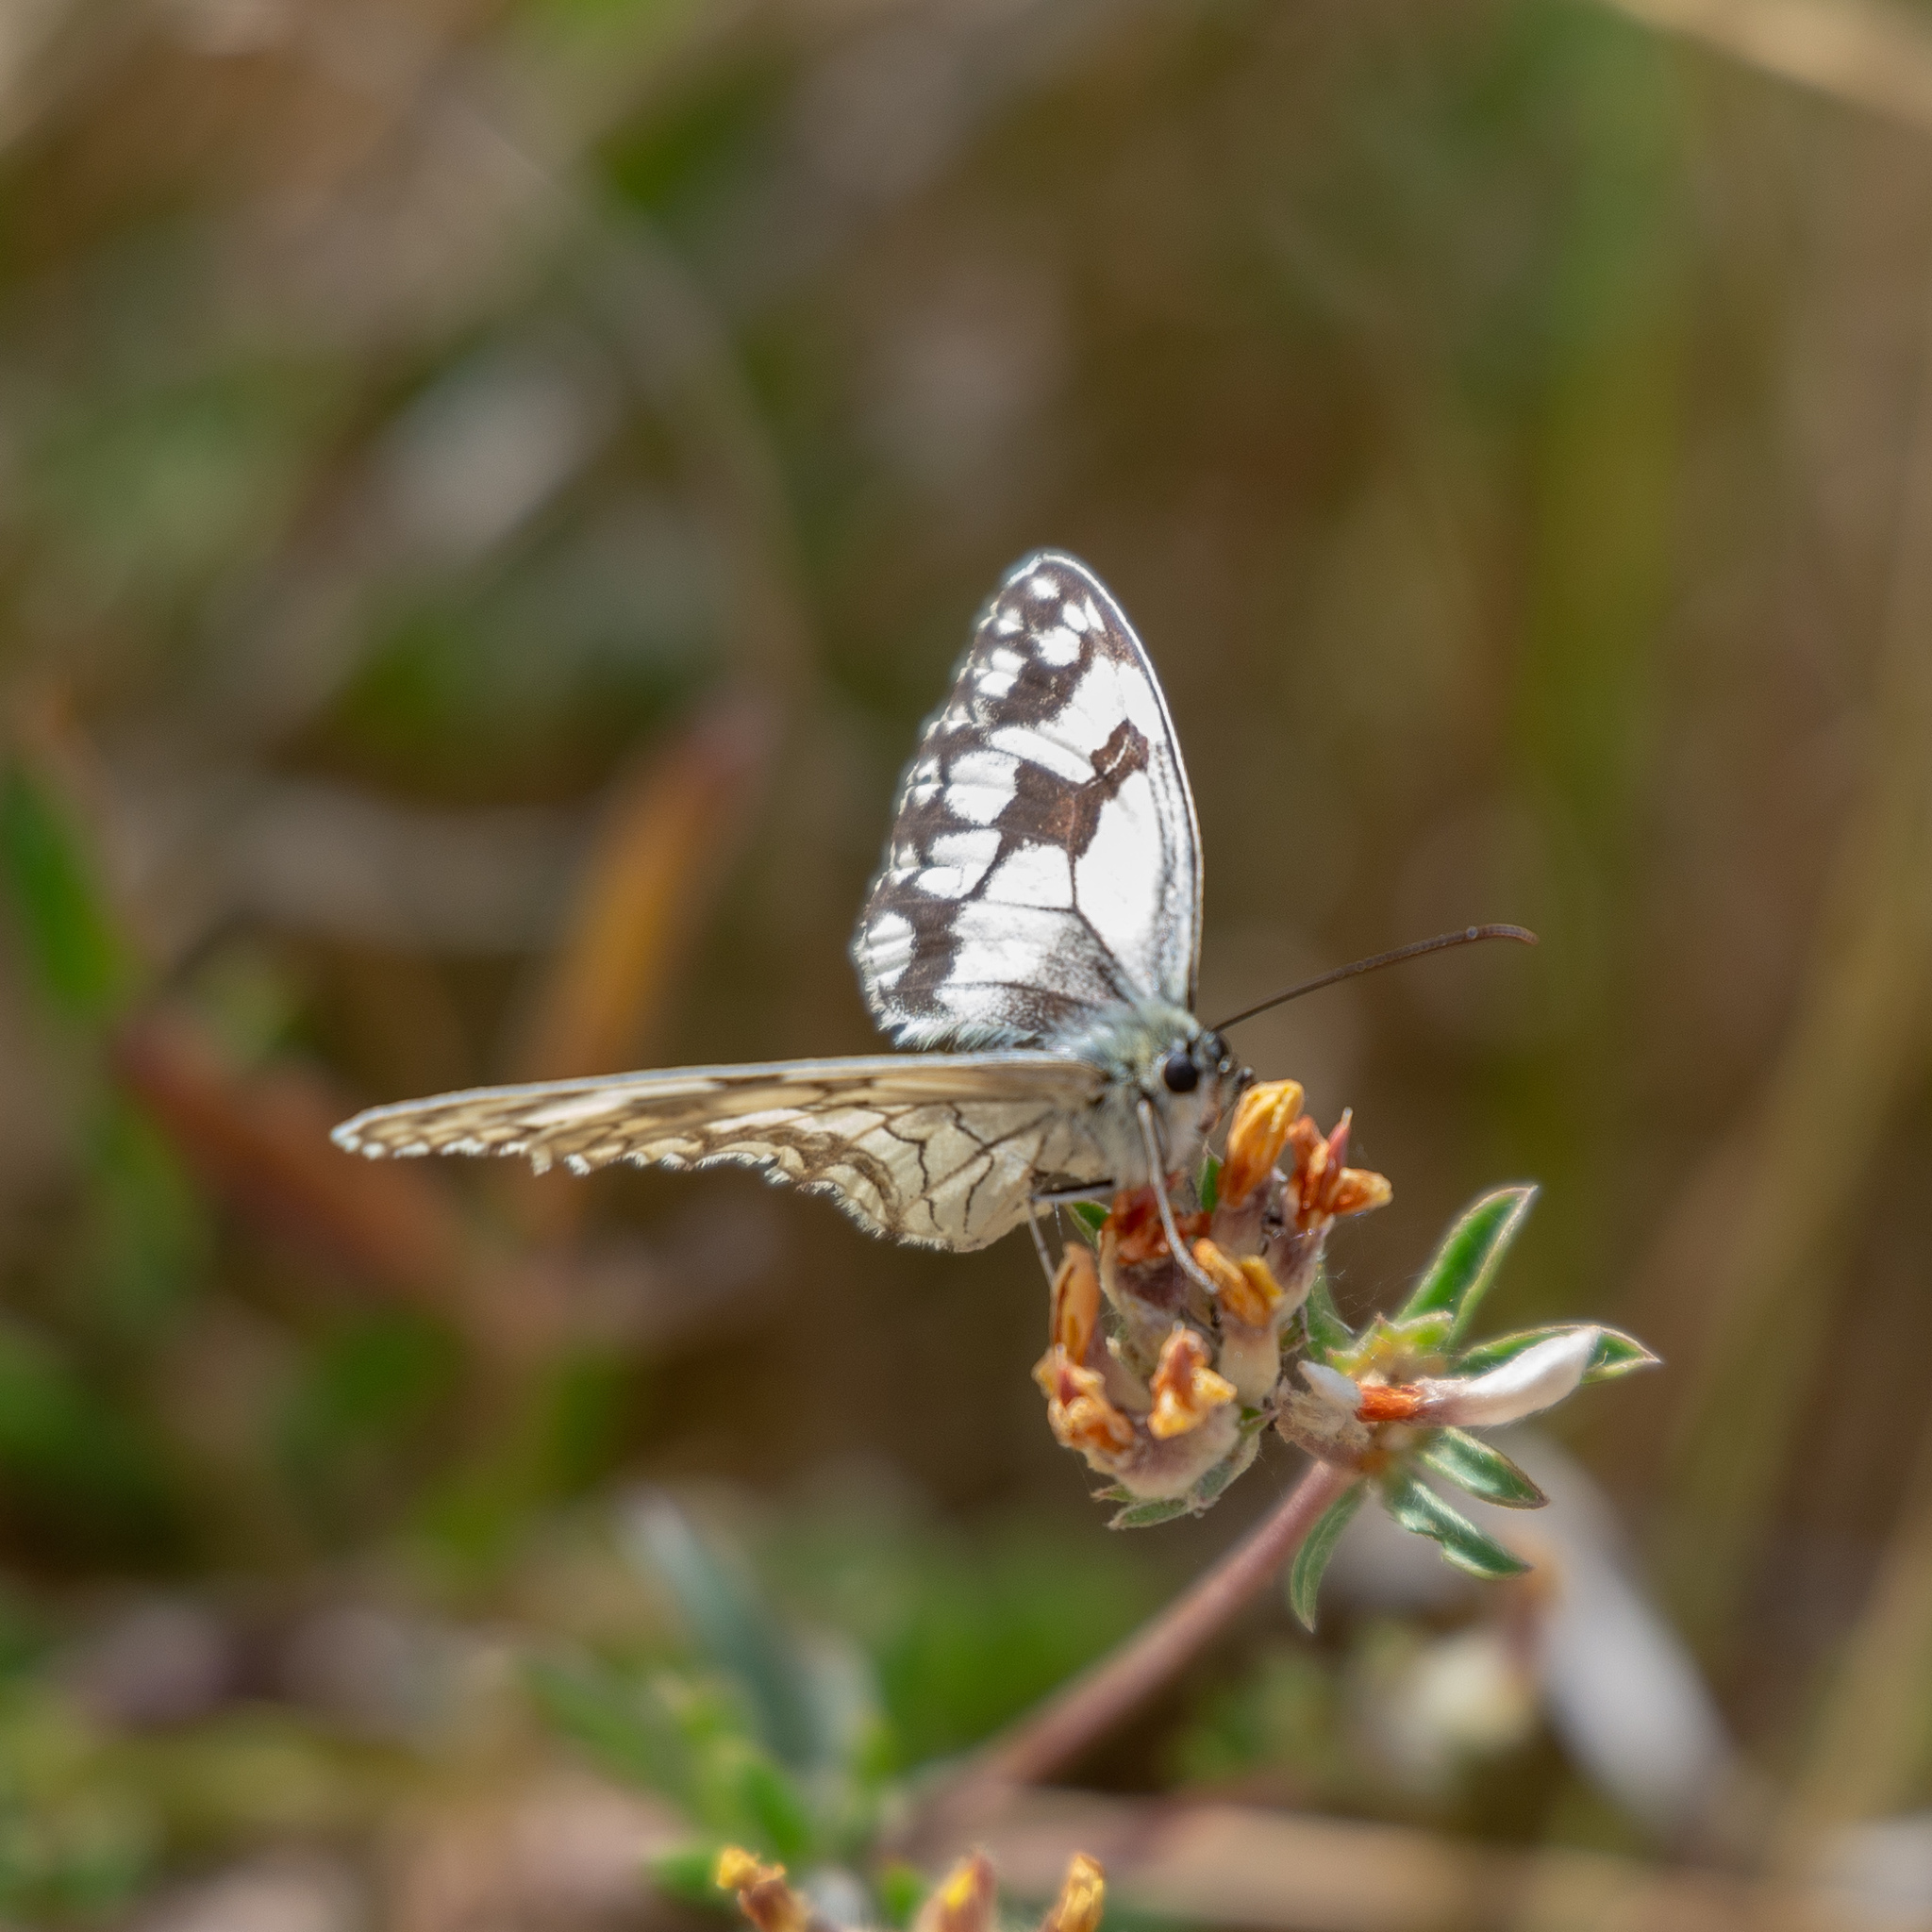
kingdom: Animalia
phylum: Arthropoda
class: Insecta
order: Lepidoptera
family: Nymphalidae
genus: Melanargia
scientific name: Melanargia lachesis
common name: Iberian marbled white
